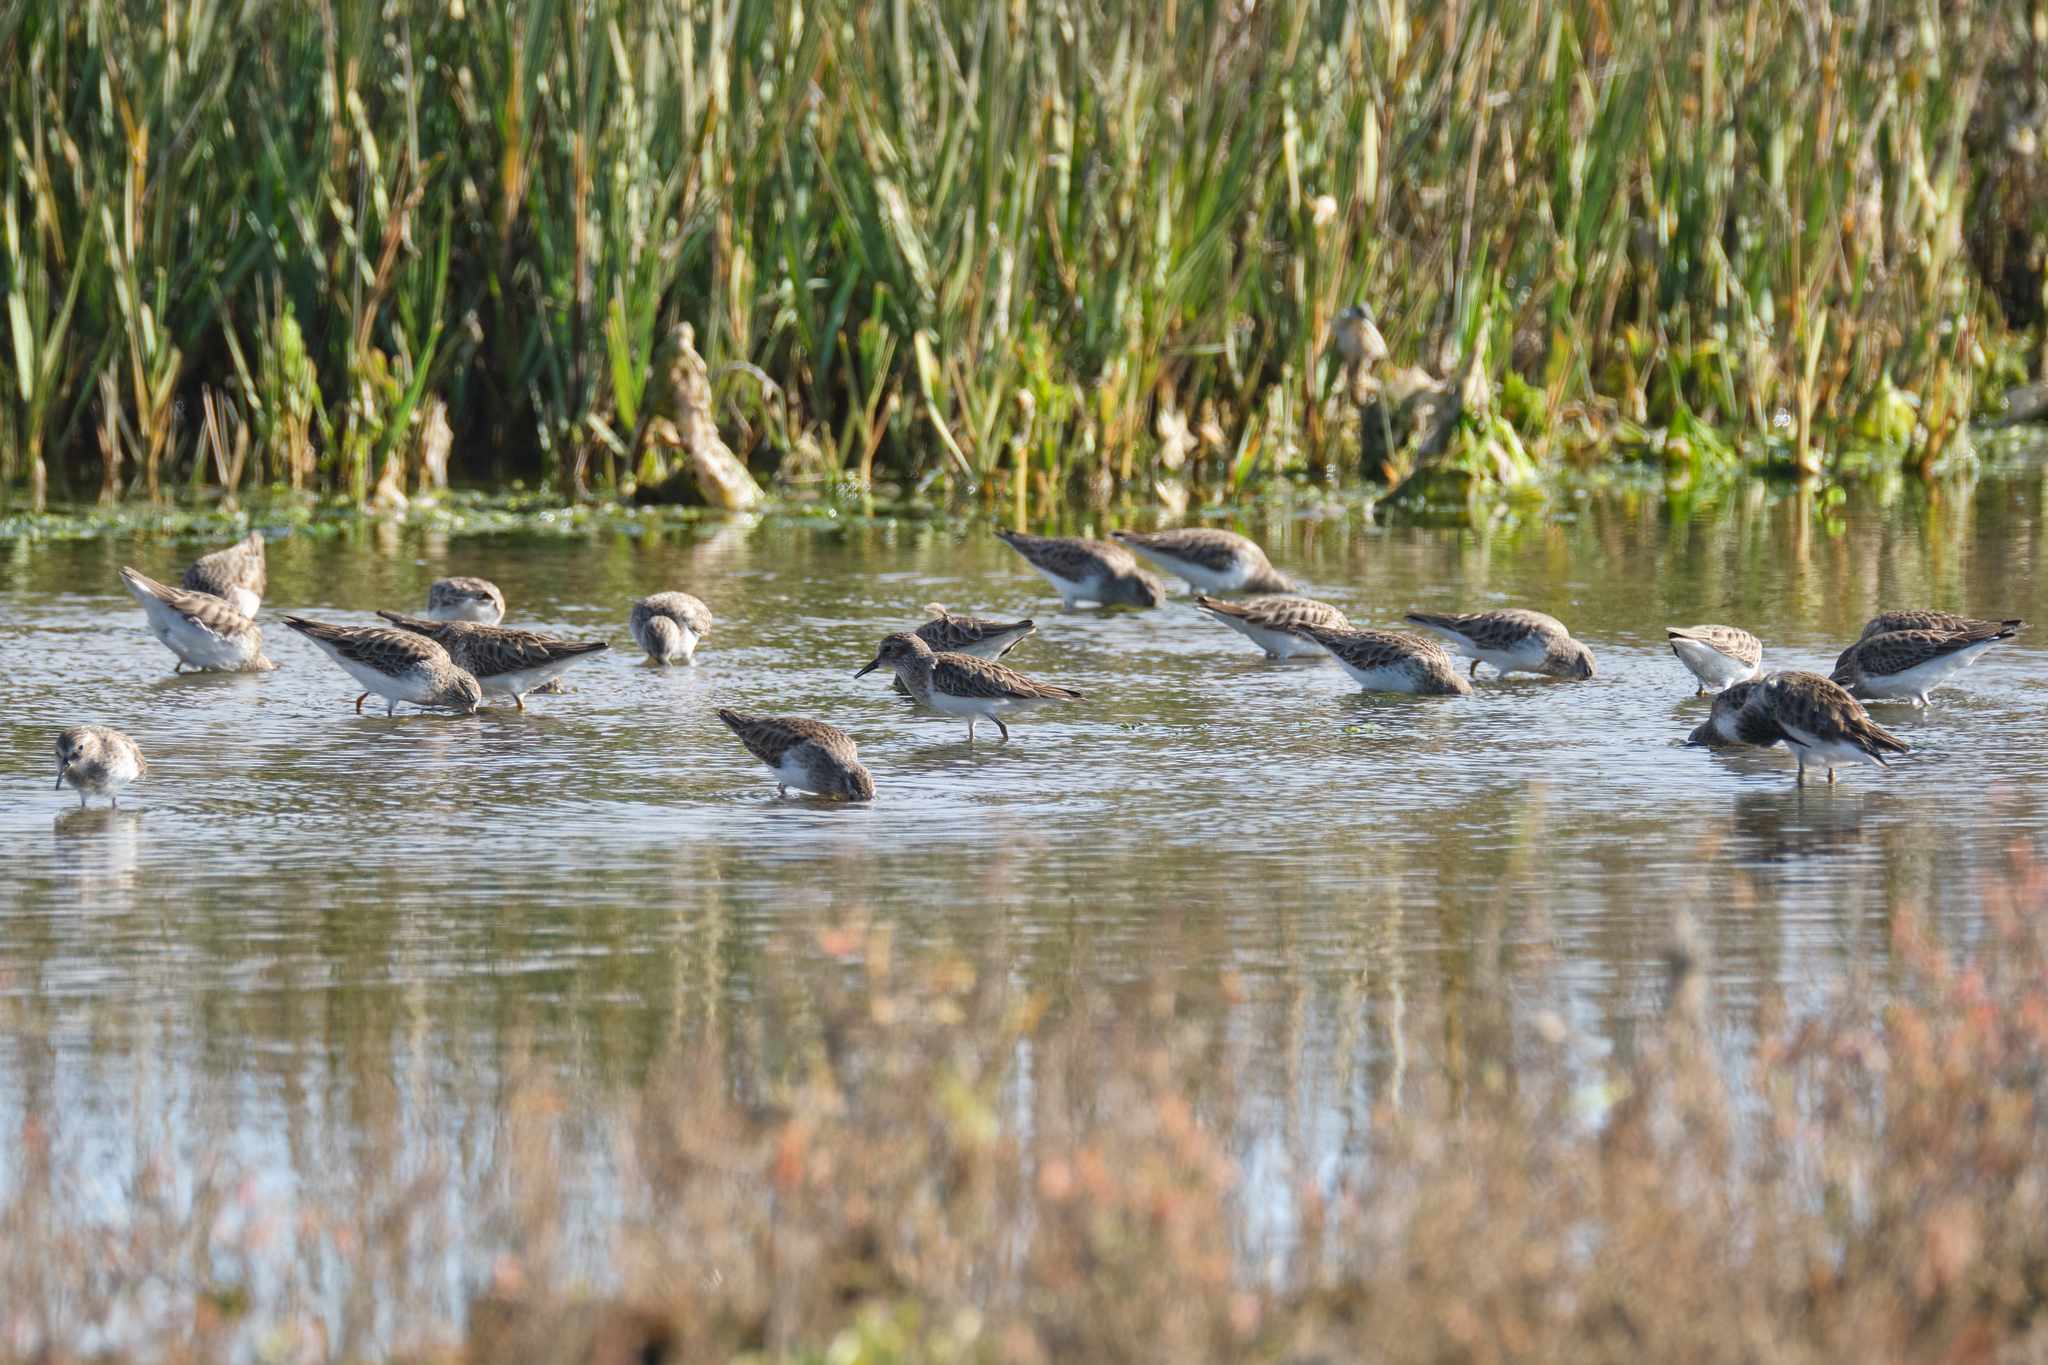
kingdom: Animalia
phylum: Chordata
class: Aves
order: Charadriiformes
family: Scolopacidae
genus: Calidris
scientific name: Calidris minutilla
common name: Least sandpiper
